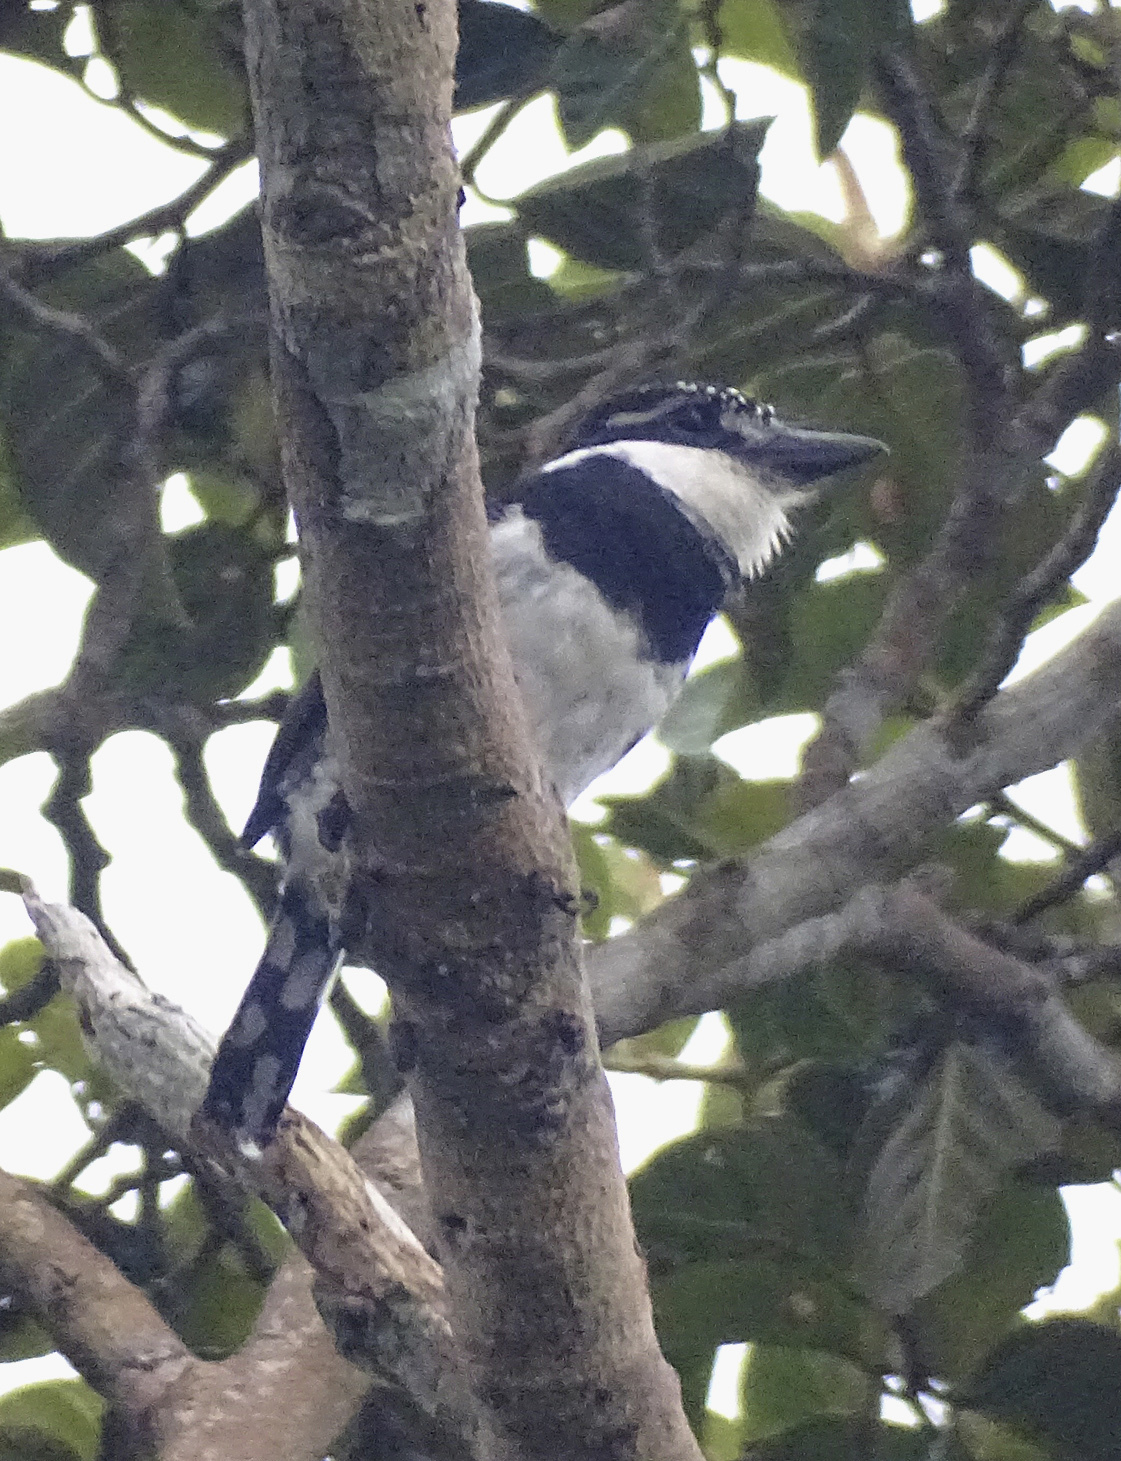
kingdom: Animalia
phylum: Chordata
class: Aves
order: Piciformes
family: Bucconidae
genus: Notharchus
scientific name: Notharchus tectus
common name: Pied puffbird
